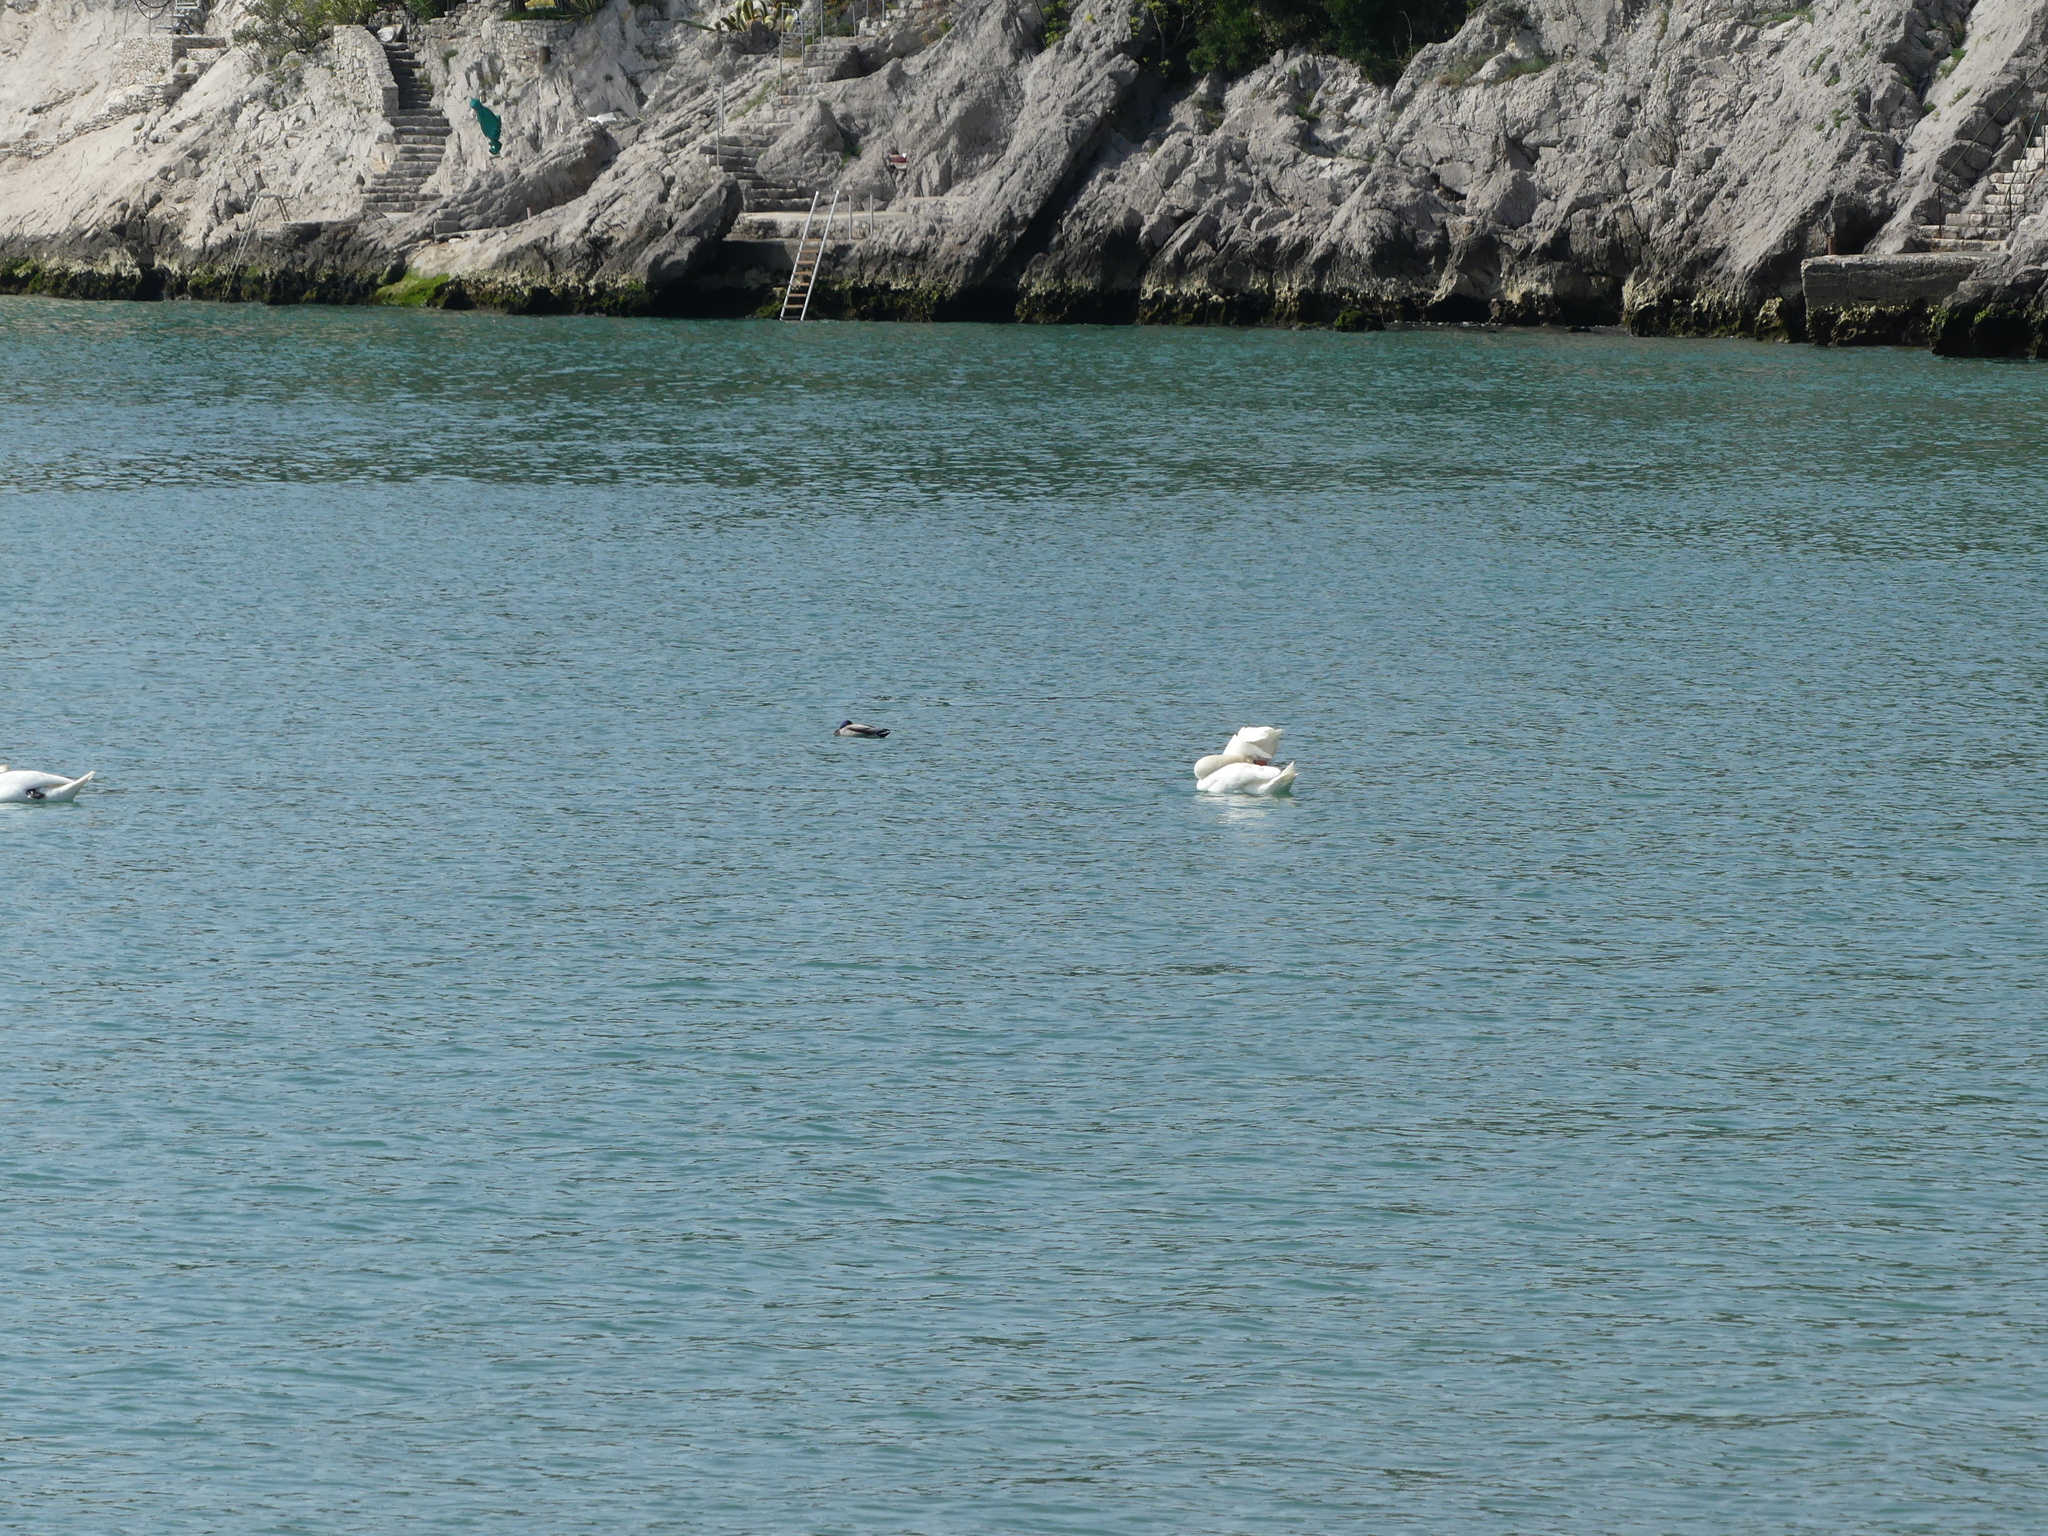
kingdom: Animalia
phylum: Chordata
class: Aves
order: Anseriformes
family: Anatidae
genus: Anas
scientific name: Anas platyrhynchos
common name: Mallard
